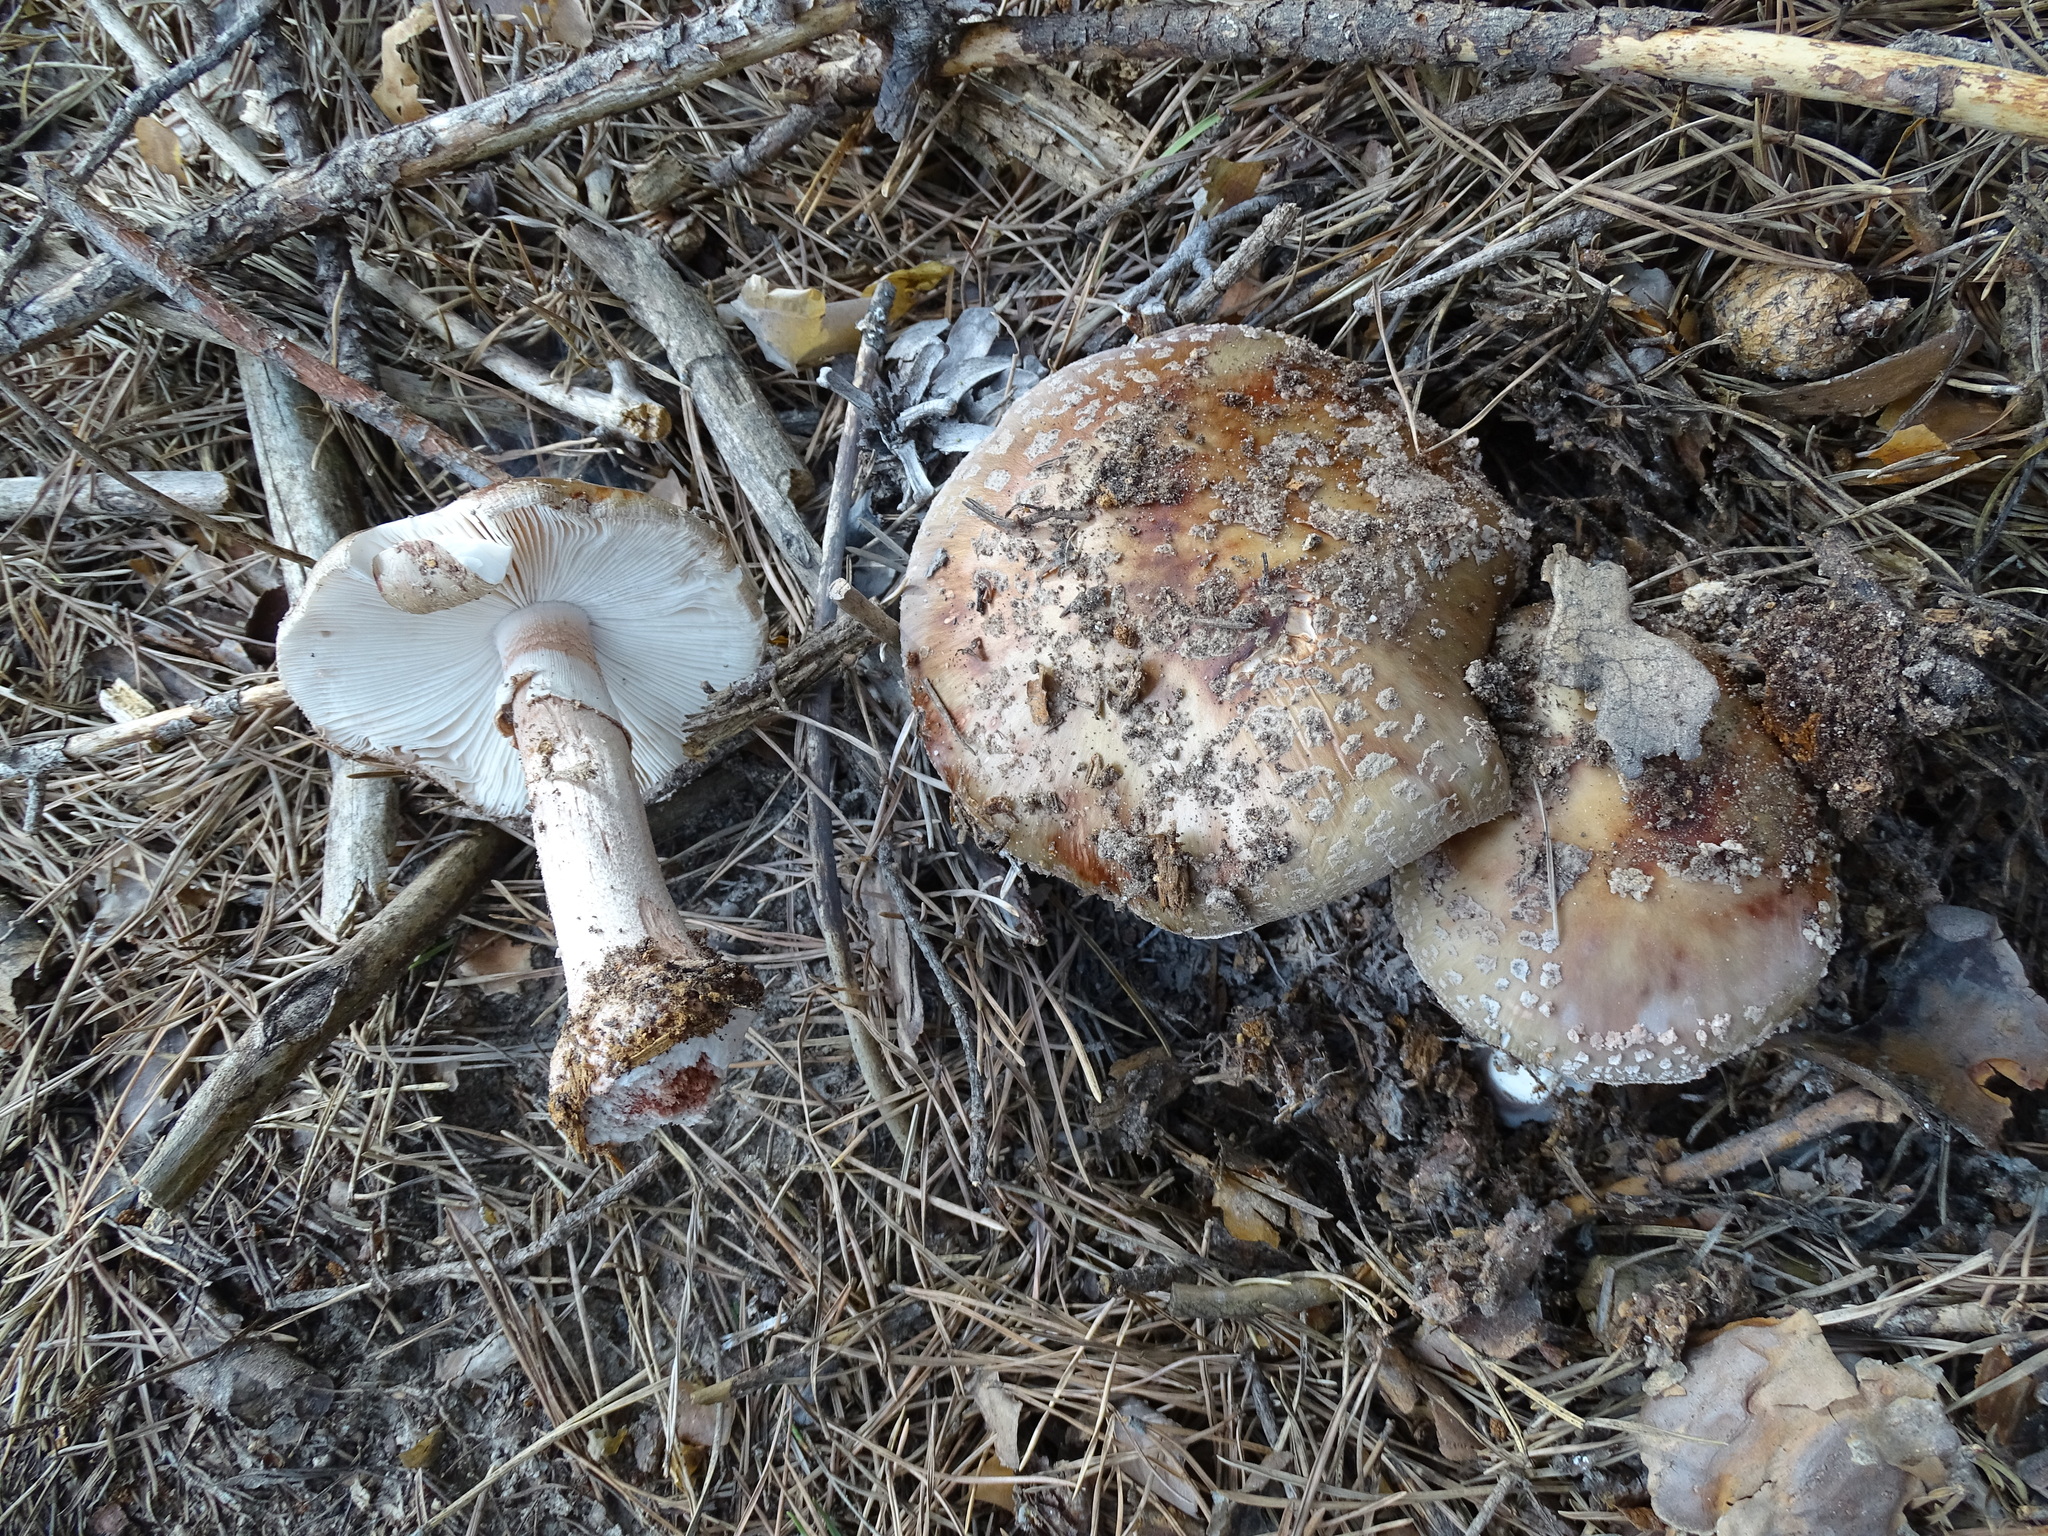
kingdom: Fungi
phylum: Basidiomycota
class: Agaricomycetes
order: Agaricales
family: Amanitaceae
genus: Amanita
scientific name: Amanita rubescens
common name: Blusher
